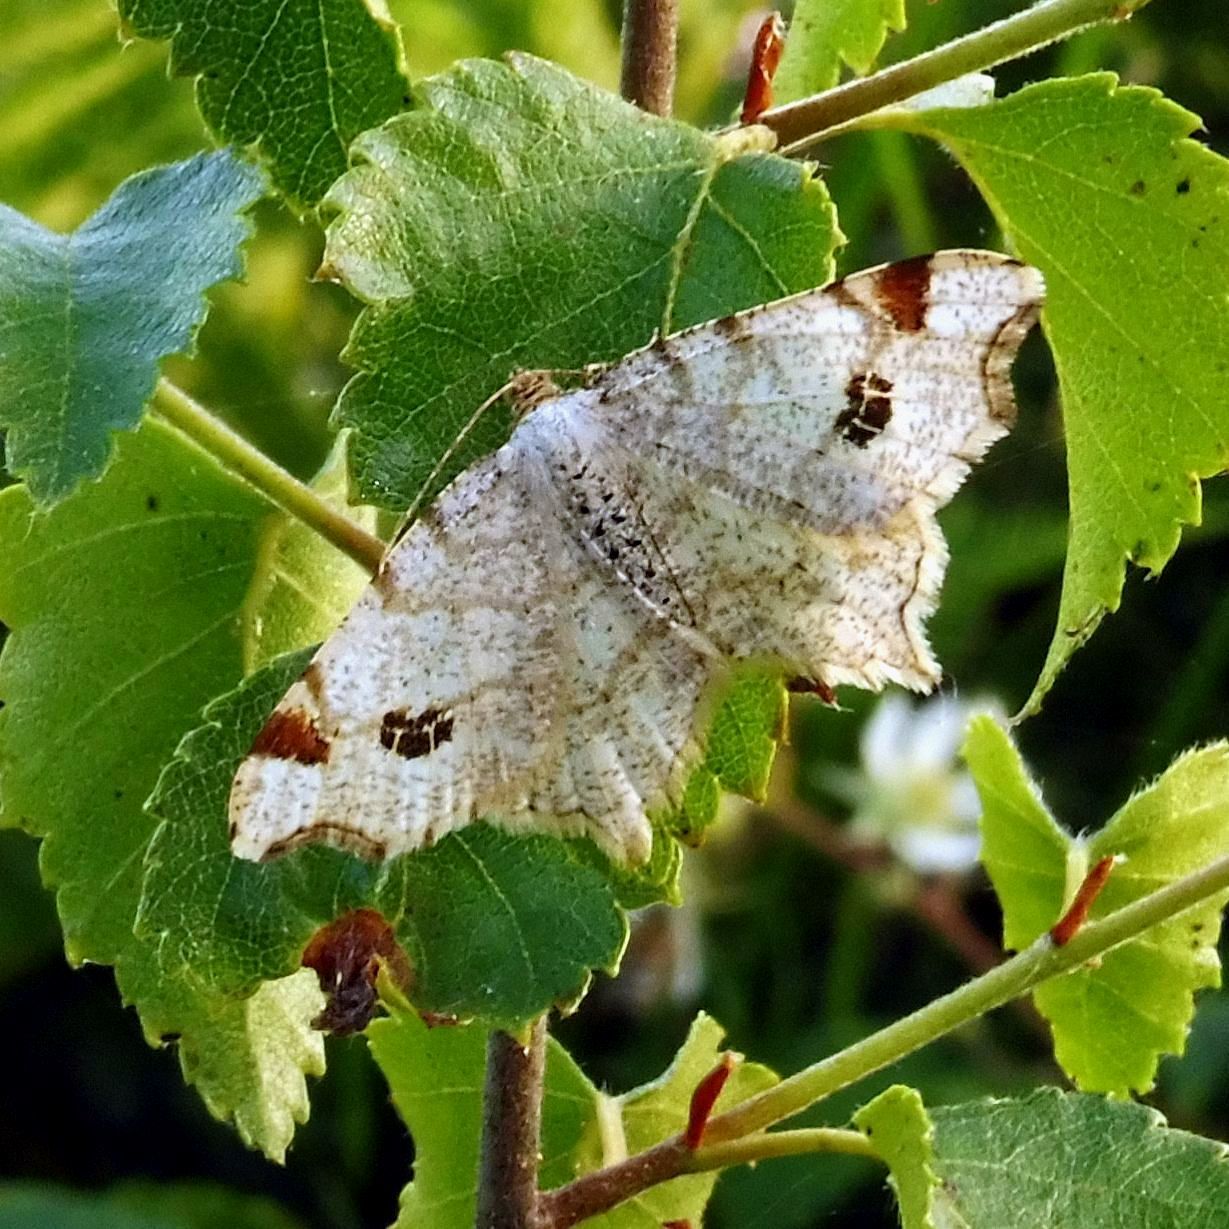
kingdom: Animalia
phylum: Arthropoda
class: Insecta
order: Lepidoptera
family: Geometridae
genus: Macaria
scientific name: Macaria notata
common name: Peacock moth
